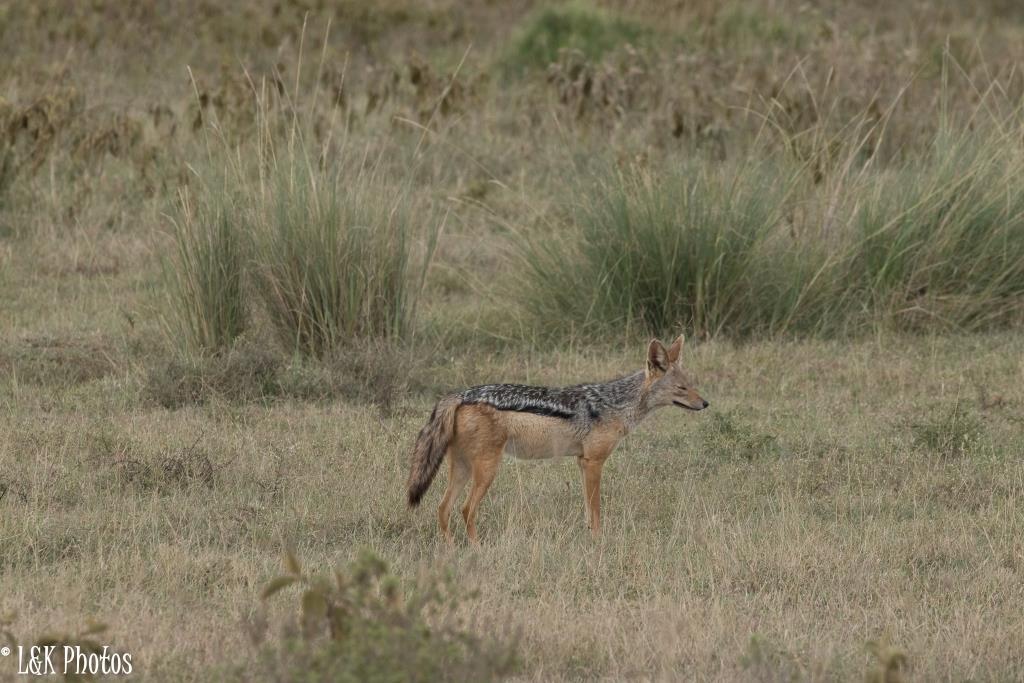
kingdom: Animalia
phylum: Chordata
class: Mammalia
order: Carnivora
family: Canidae
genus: Lupulella
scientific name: Lupulella
